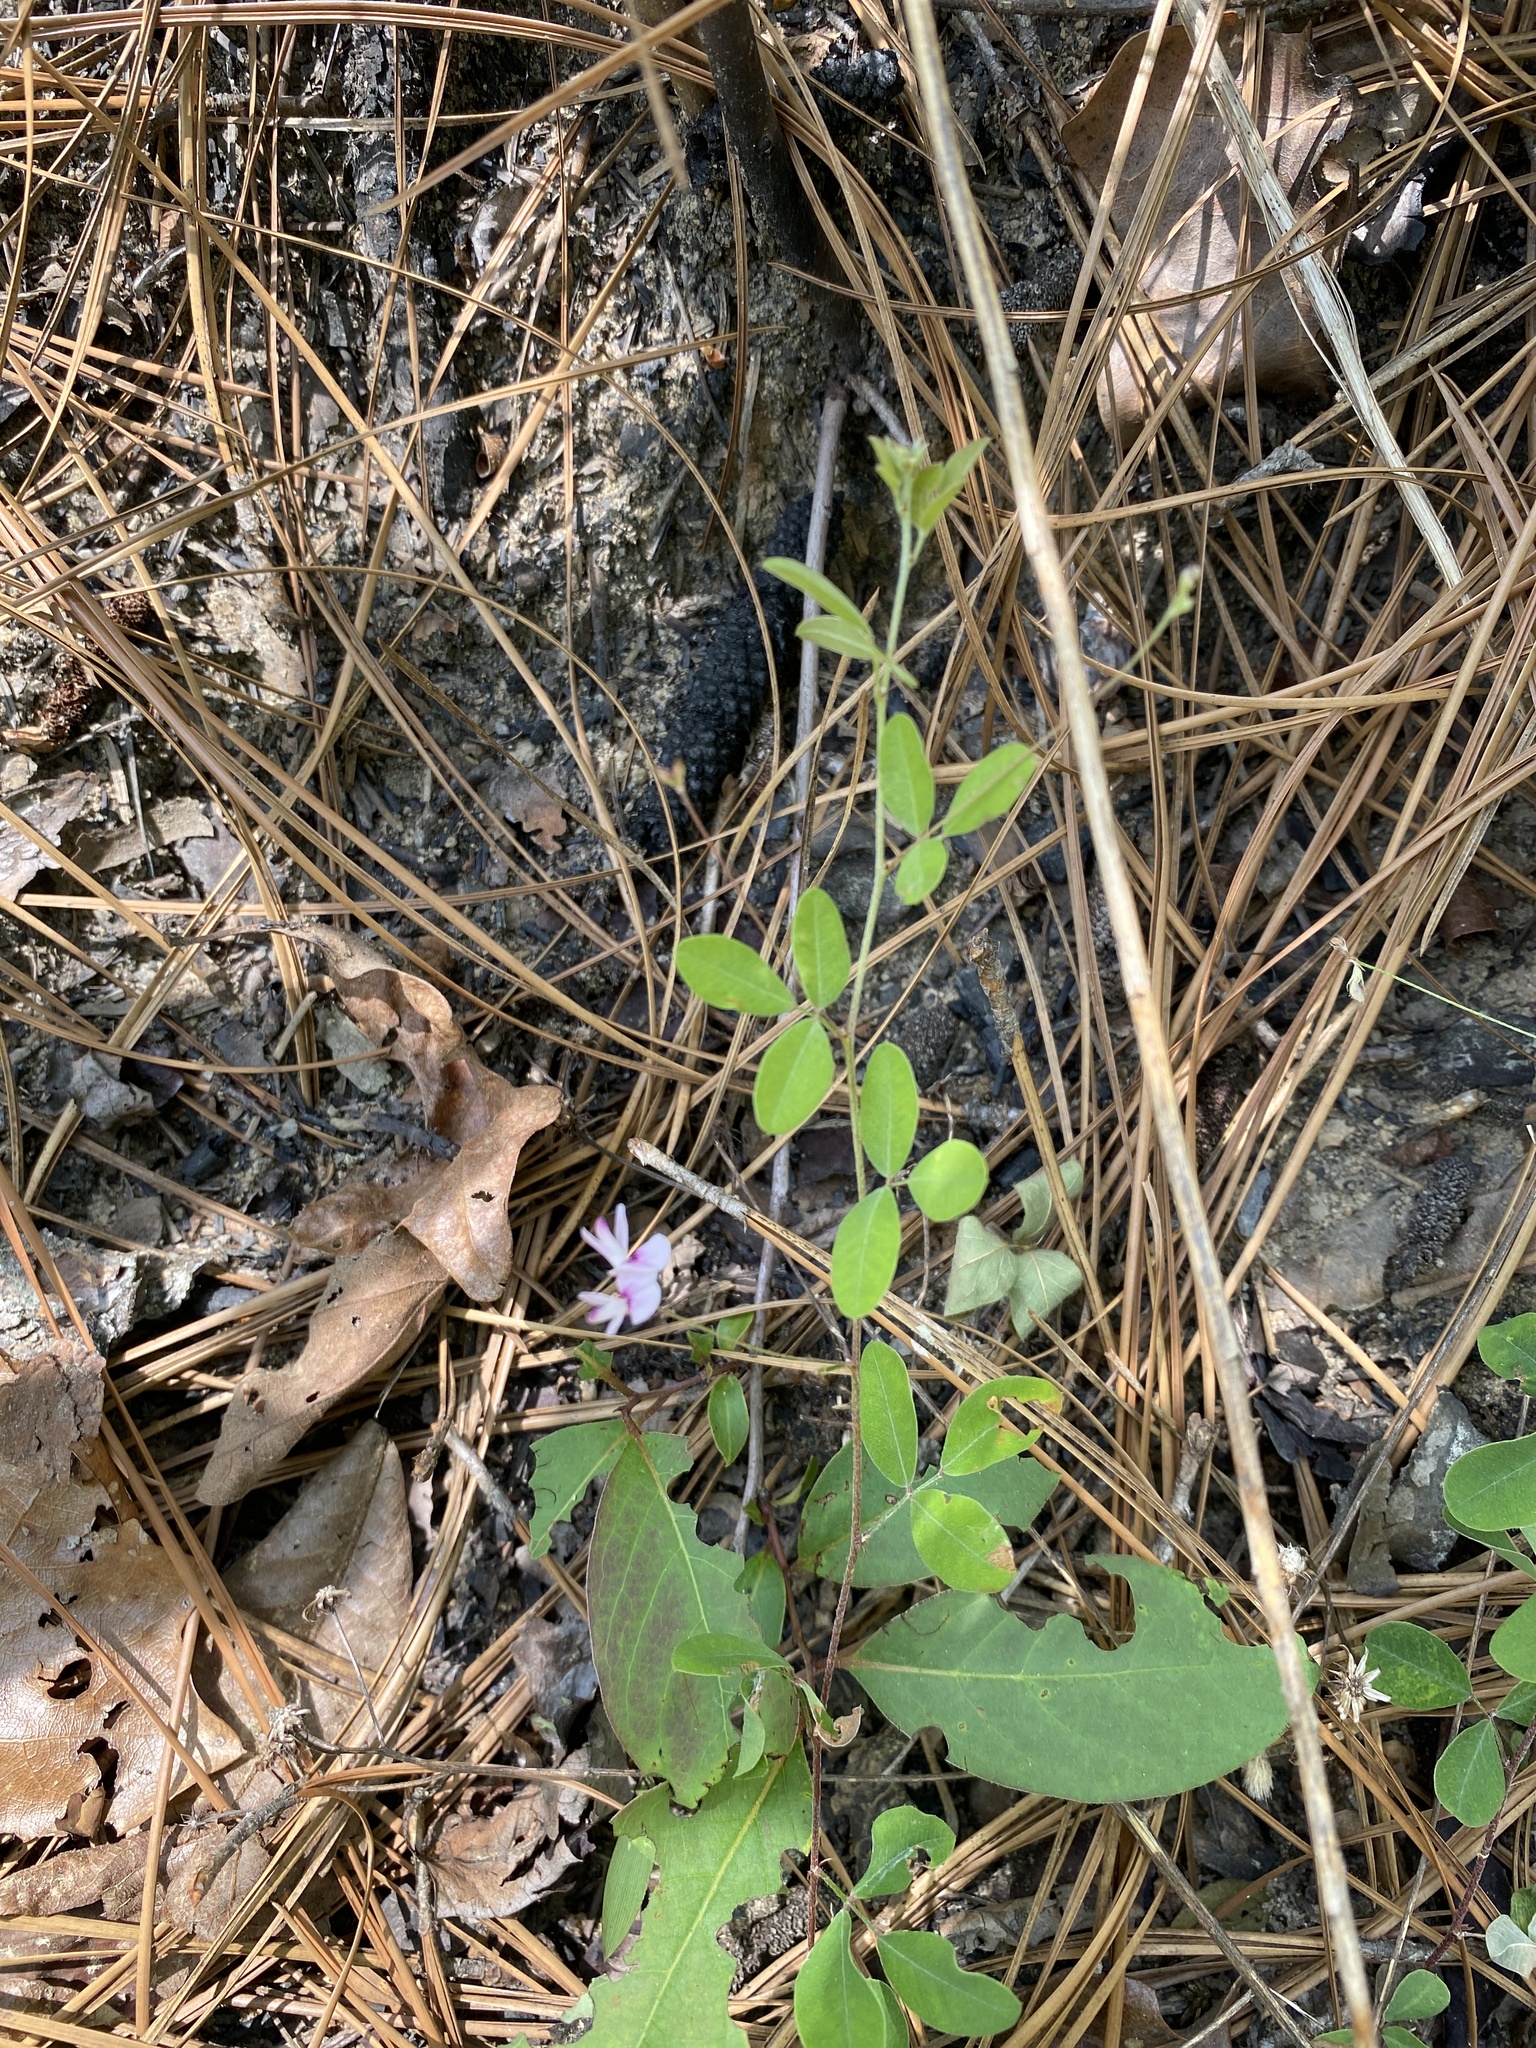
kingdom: Plantae
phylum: Tracheophyta
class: Magnoliopsida
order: Fabales
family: Fabaceae
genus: Lespedeza
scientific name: Lespedeza procumbens
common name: Downy trailing bush-clover
